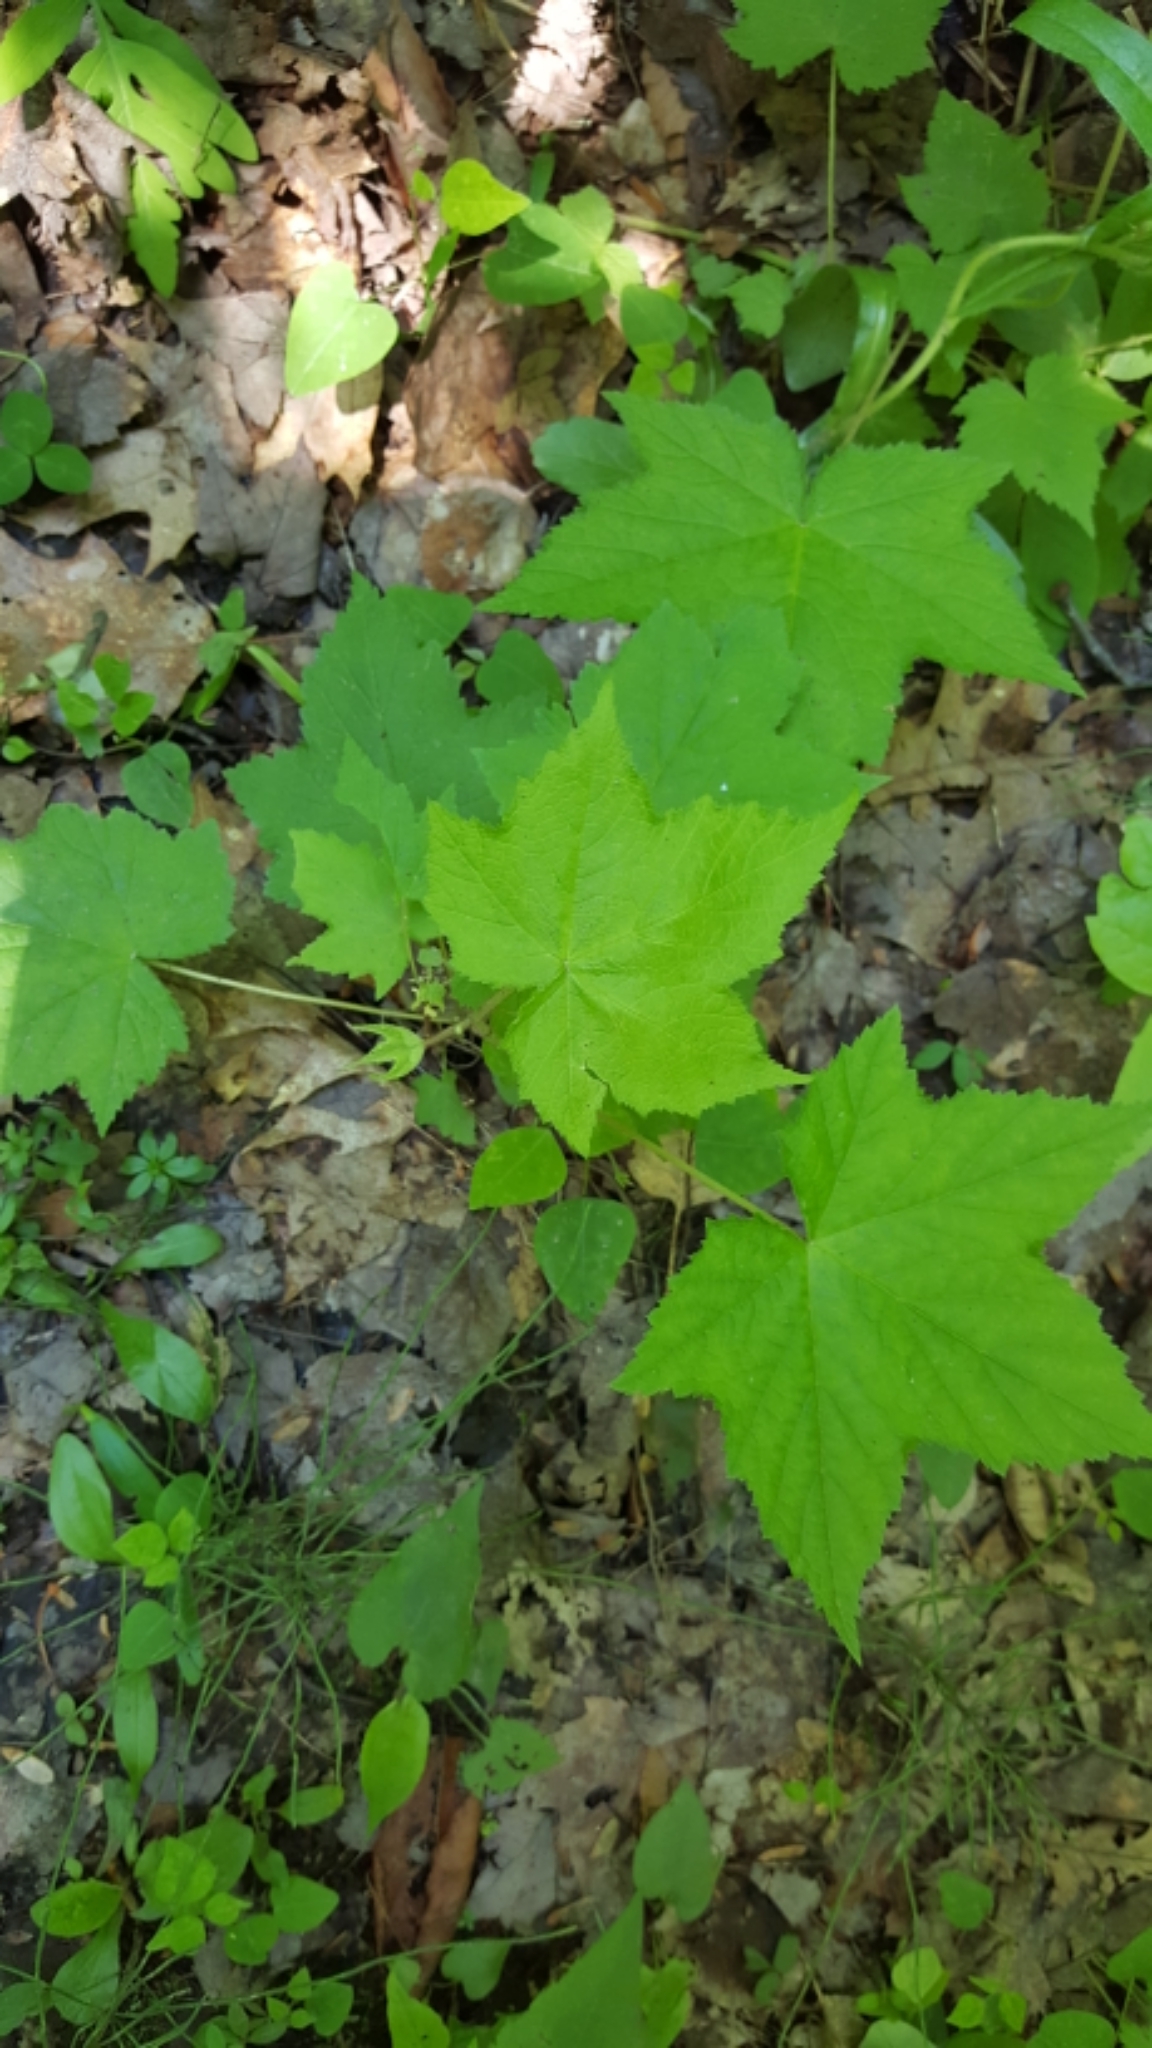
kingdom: Plantae
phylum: Tracheophyta
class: Magnoliopsida
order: Rosales
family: Rosaceae
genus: Rubus
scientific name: Rubus odoratus
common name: Purple-flowered raspberry
